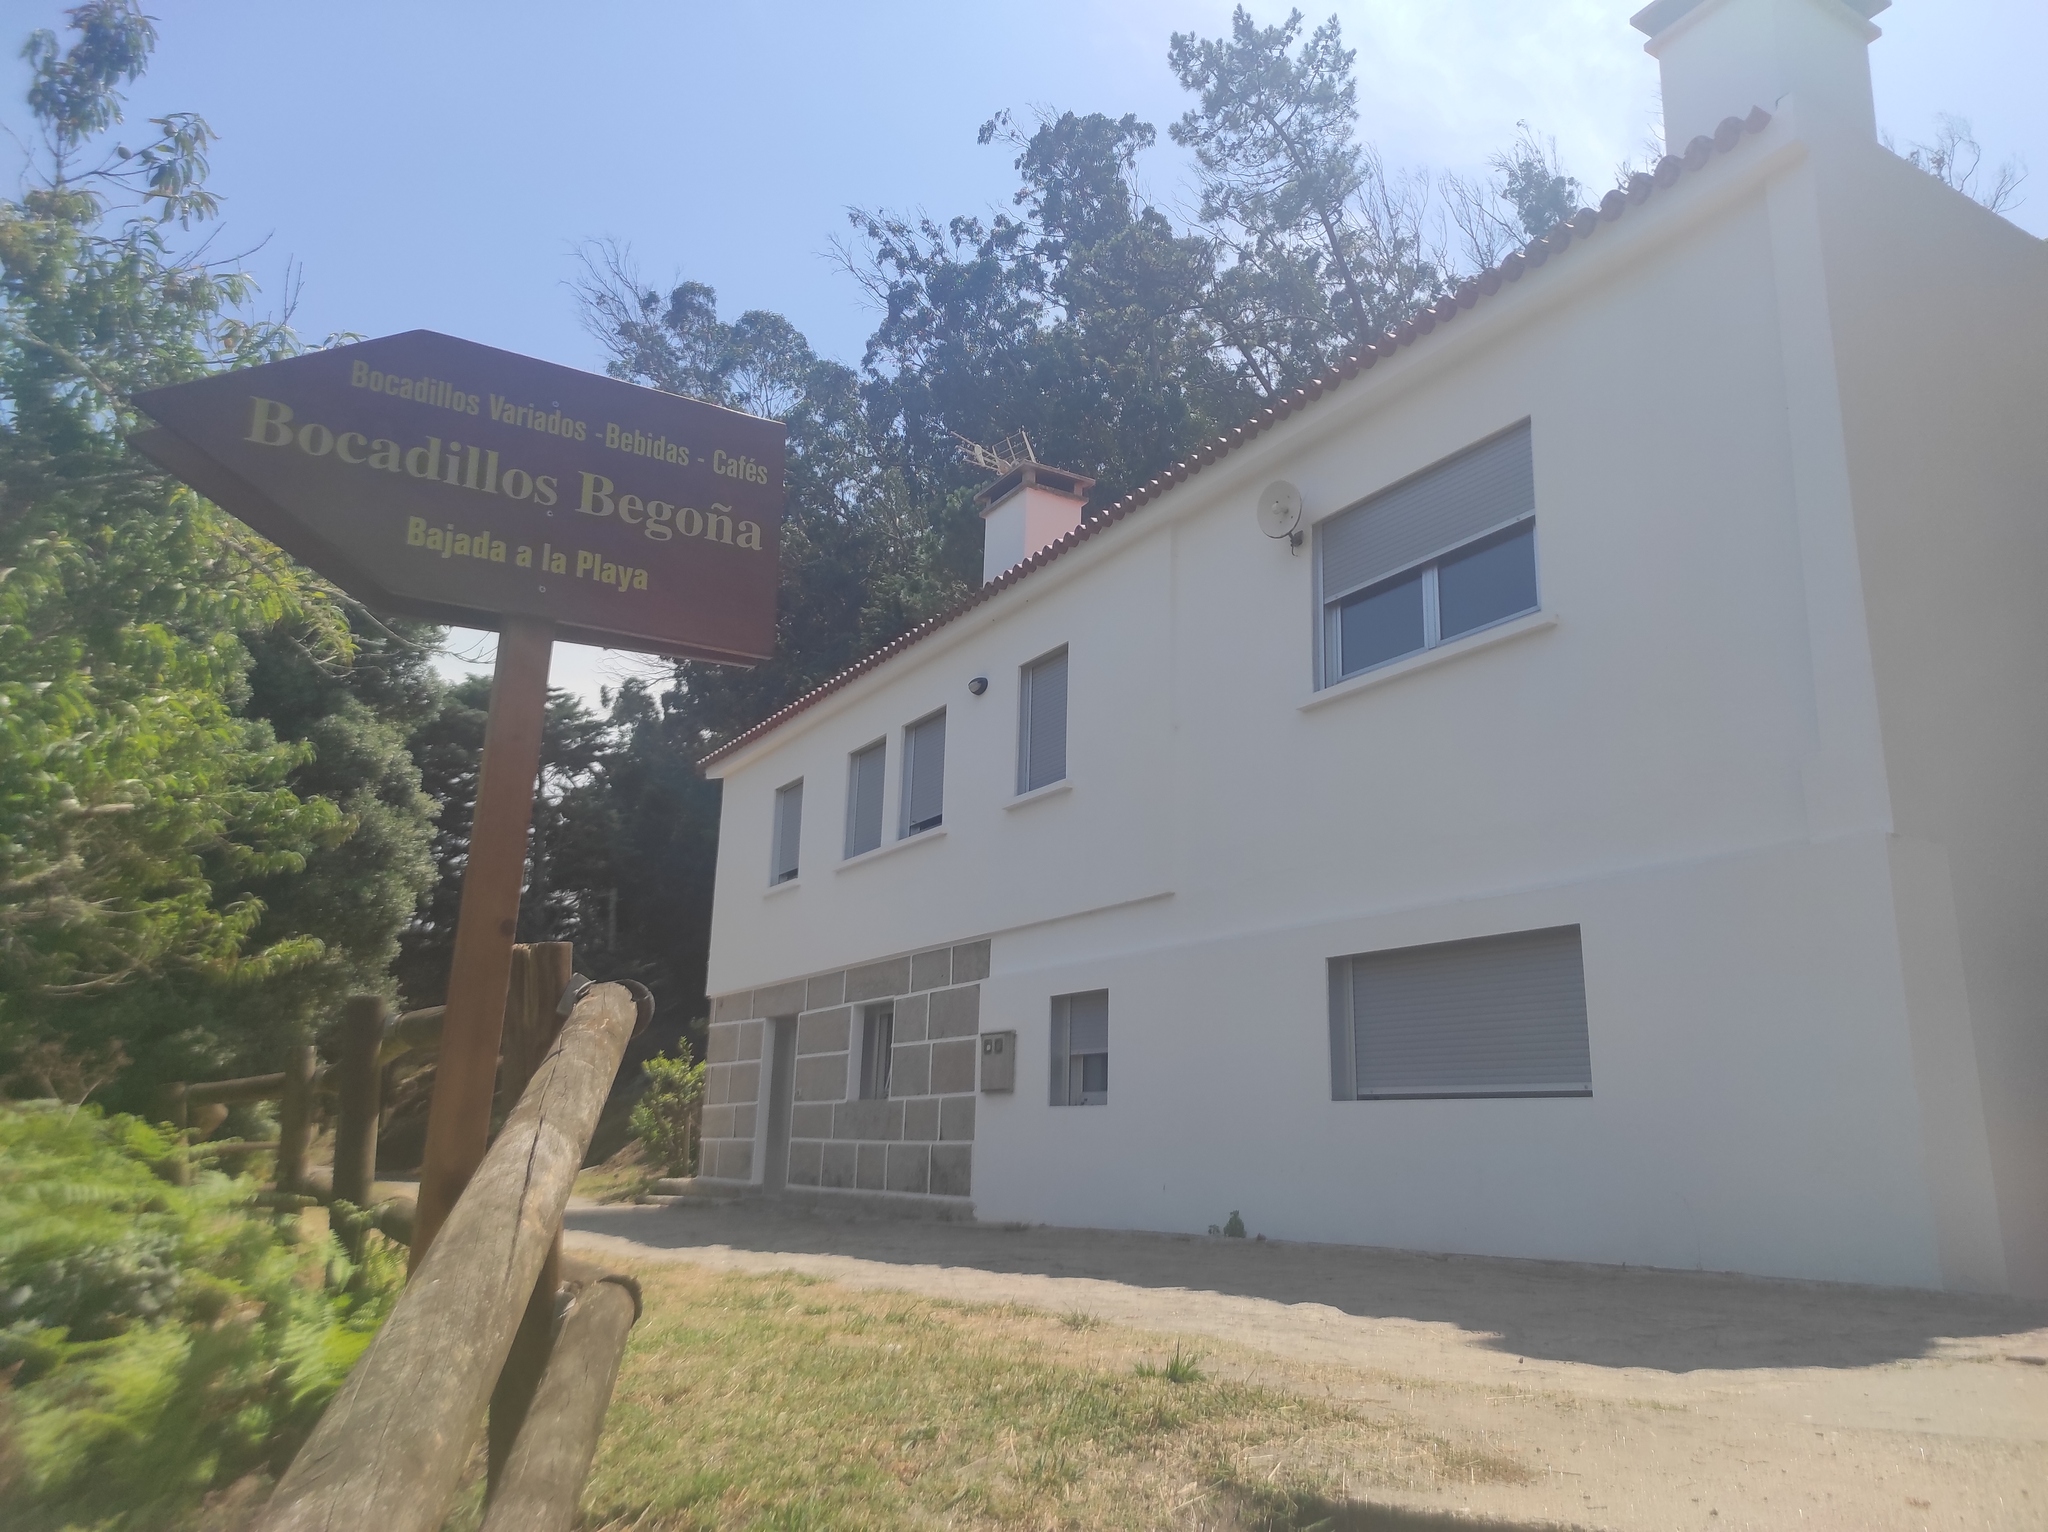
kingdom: Animalia
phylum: Chordata
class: Aves
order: Passeriformes
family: Muscicapidae
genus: Erithacus
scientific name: Erithacus rubecula
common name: European robin
